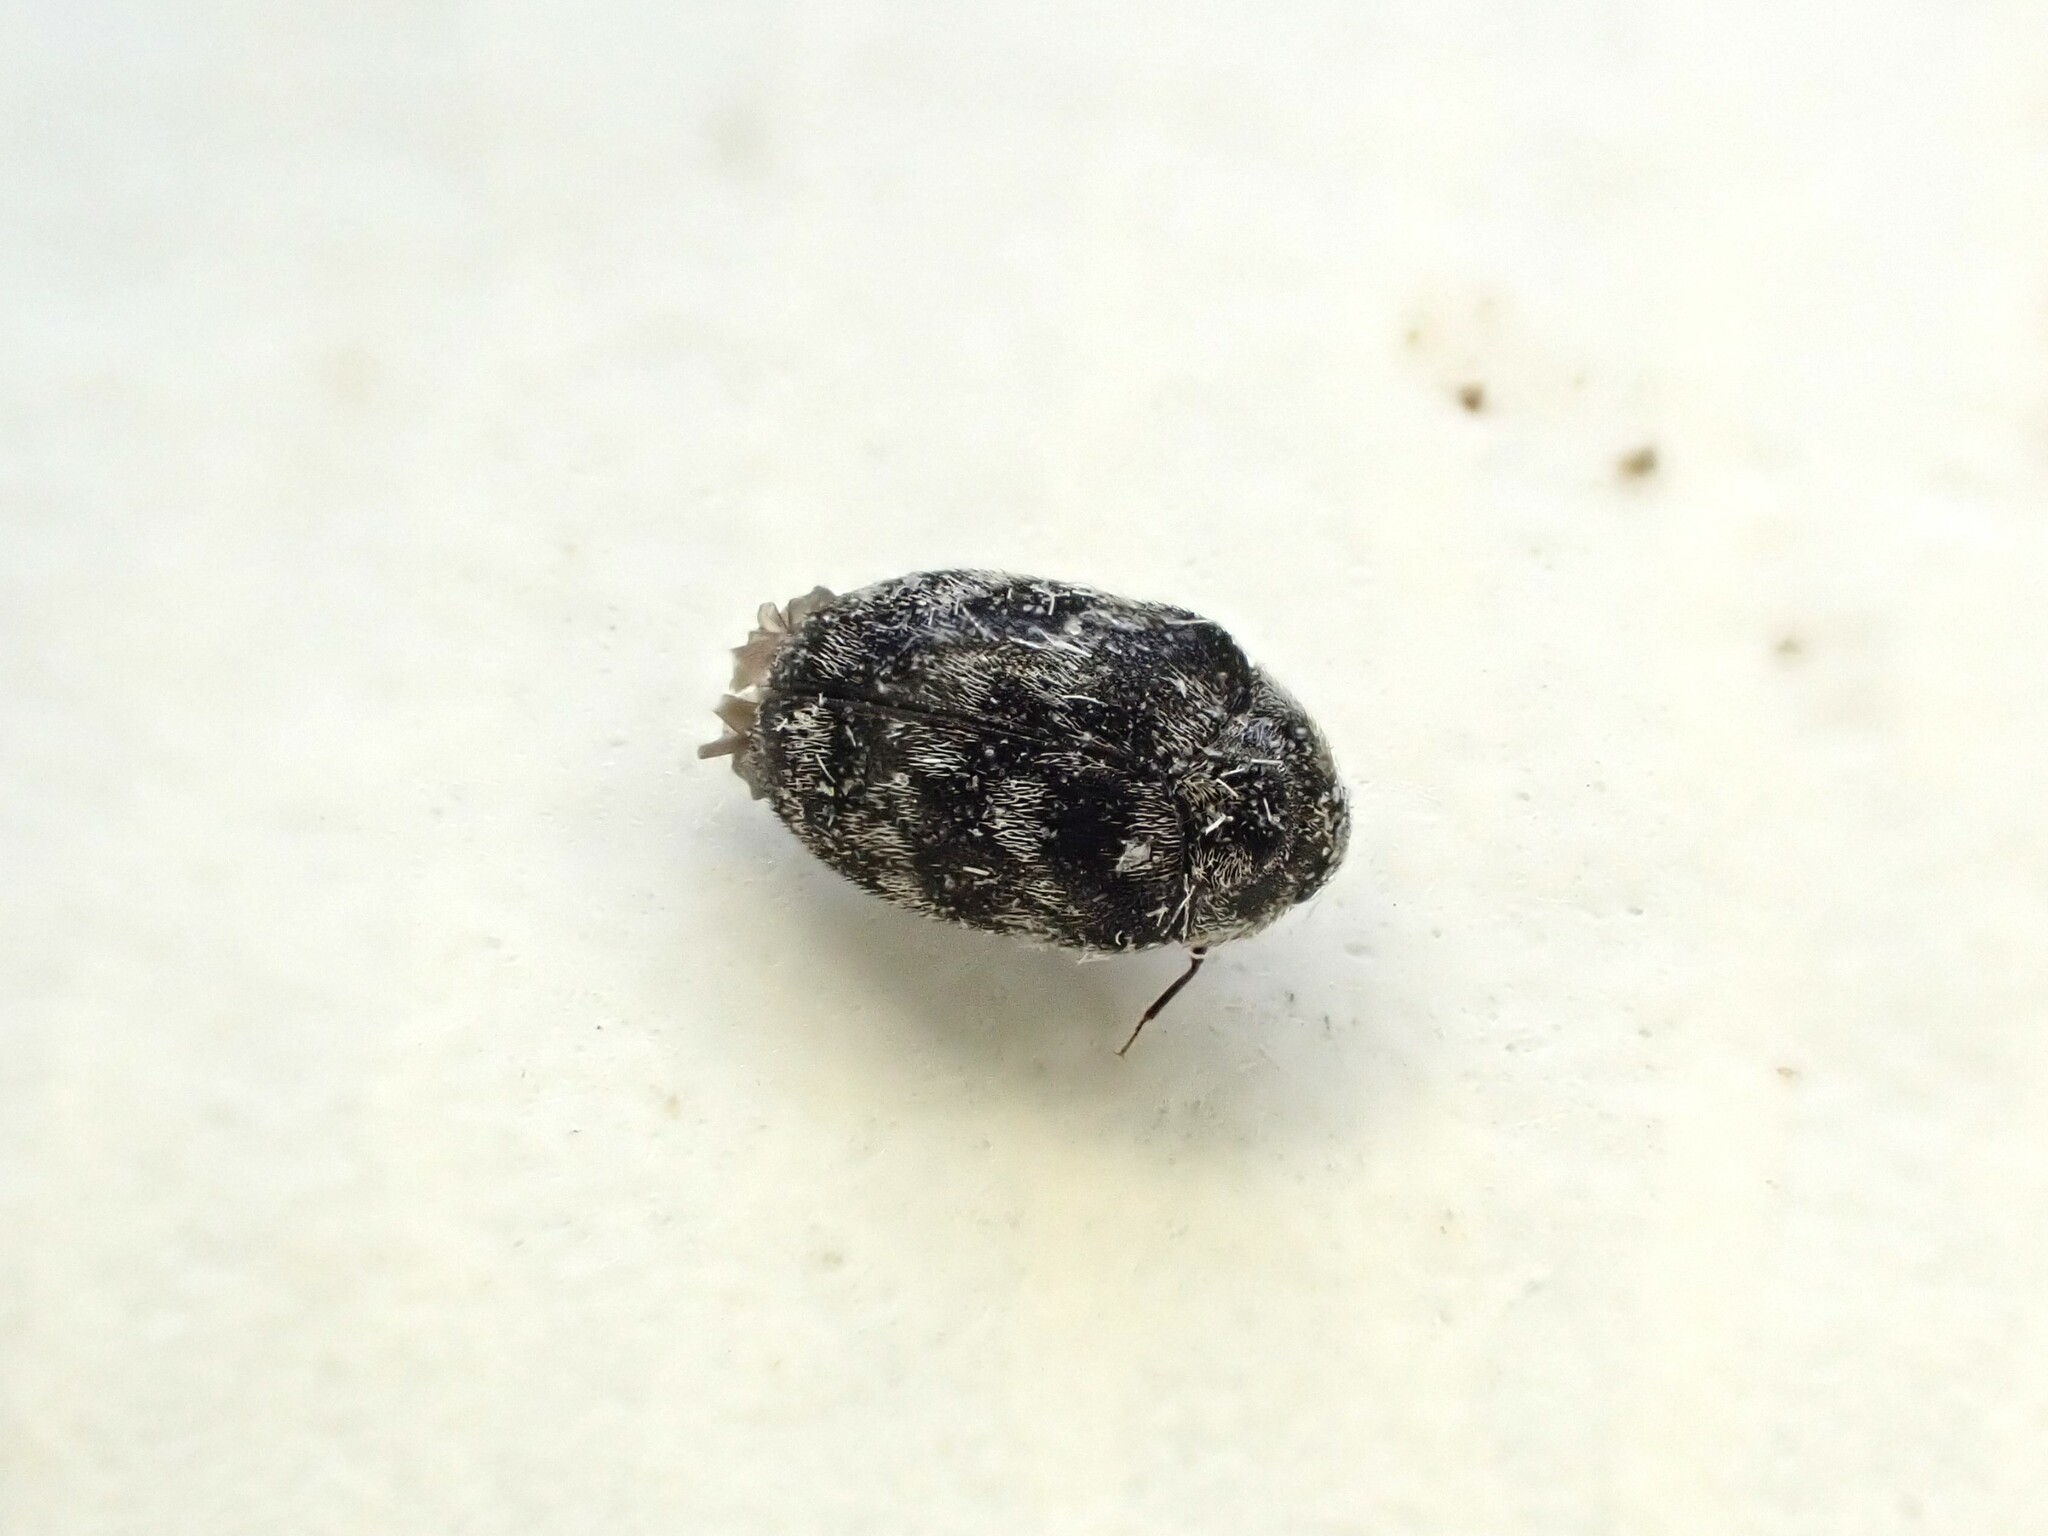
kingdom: Animalia
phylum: Arthropoda
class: Insecta
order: Coleoptera
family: Dermestidae
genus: Anthrenocerus
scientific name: Anthrenocerus australis
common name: Australian carpet beetle
